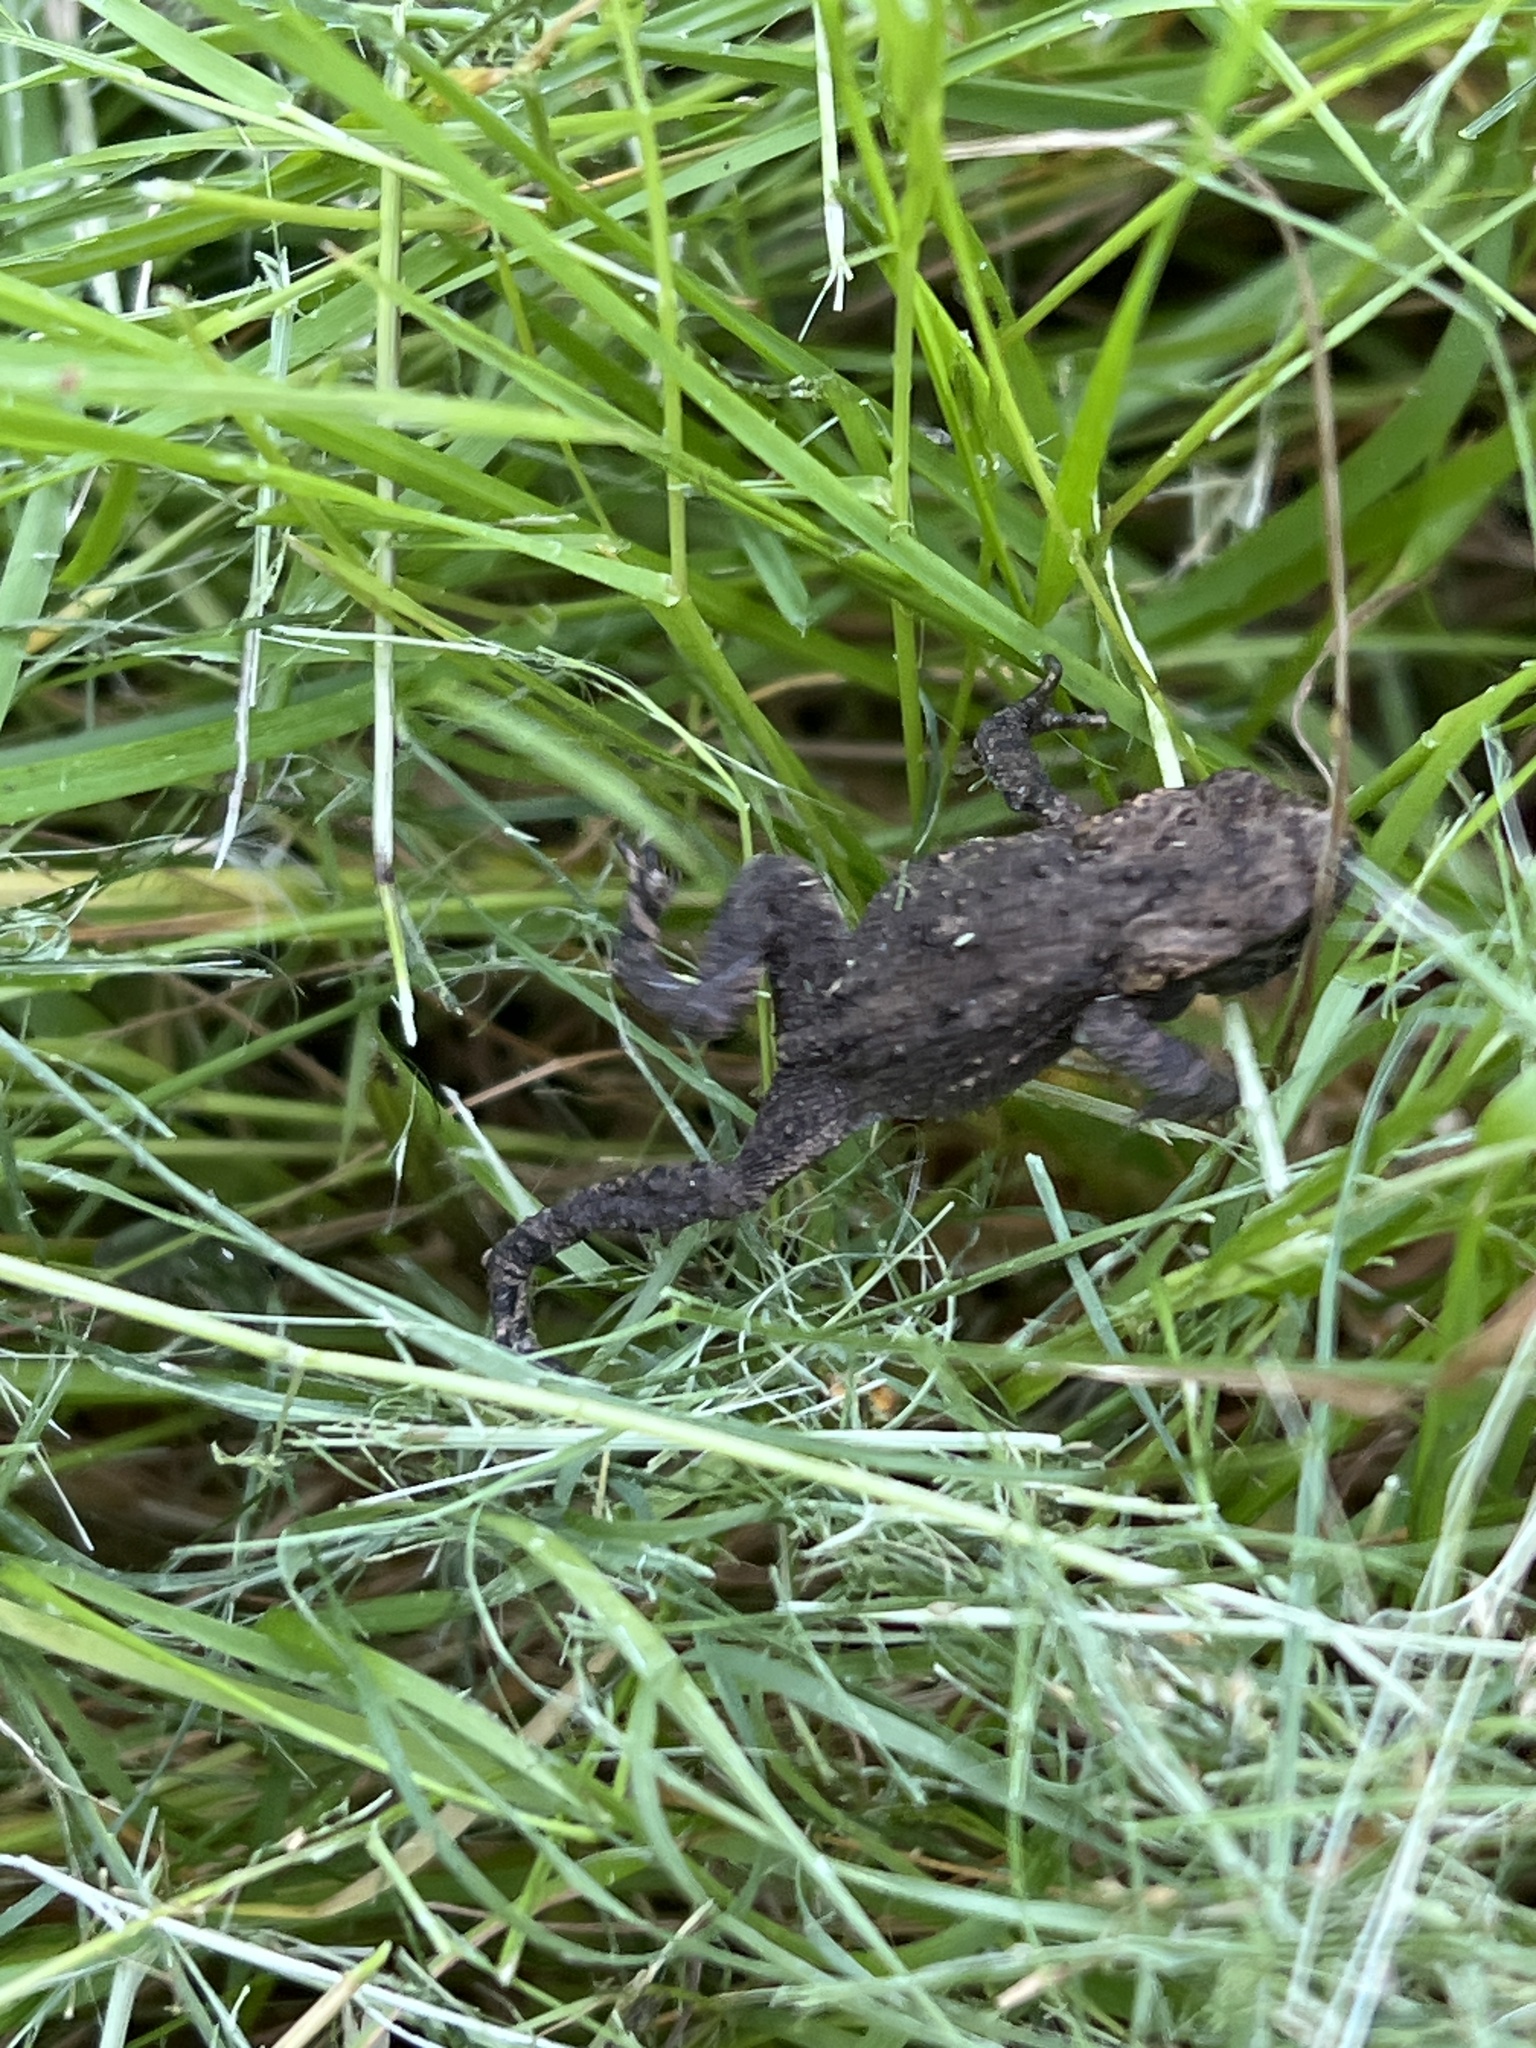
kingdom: Animalia
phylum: Chordata
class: Amphibia
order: Anura
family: Bufonidae
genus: Bufo
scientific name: Bufo bufo
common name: Common toad
